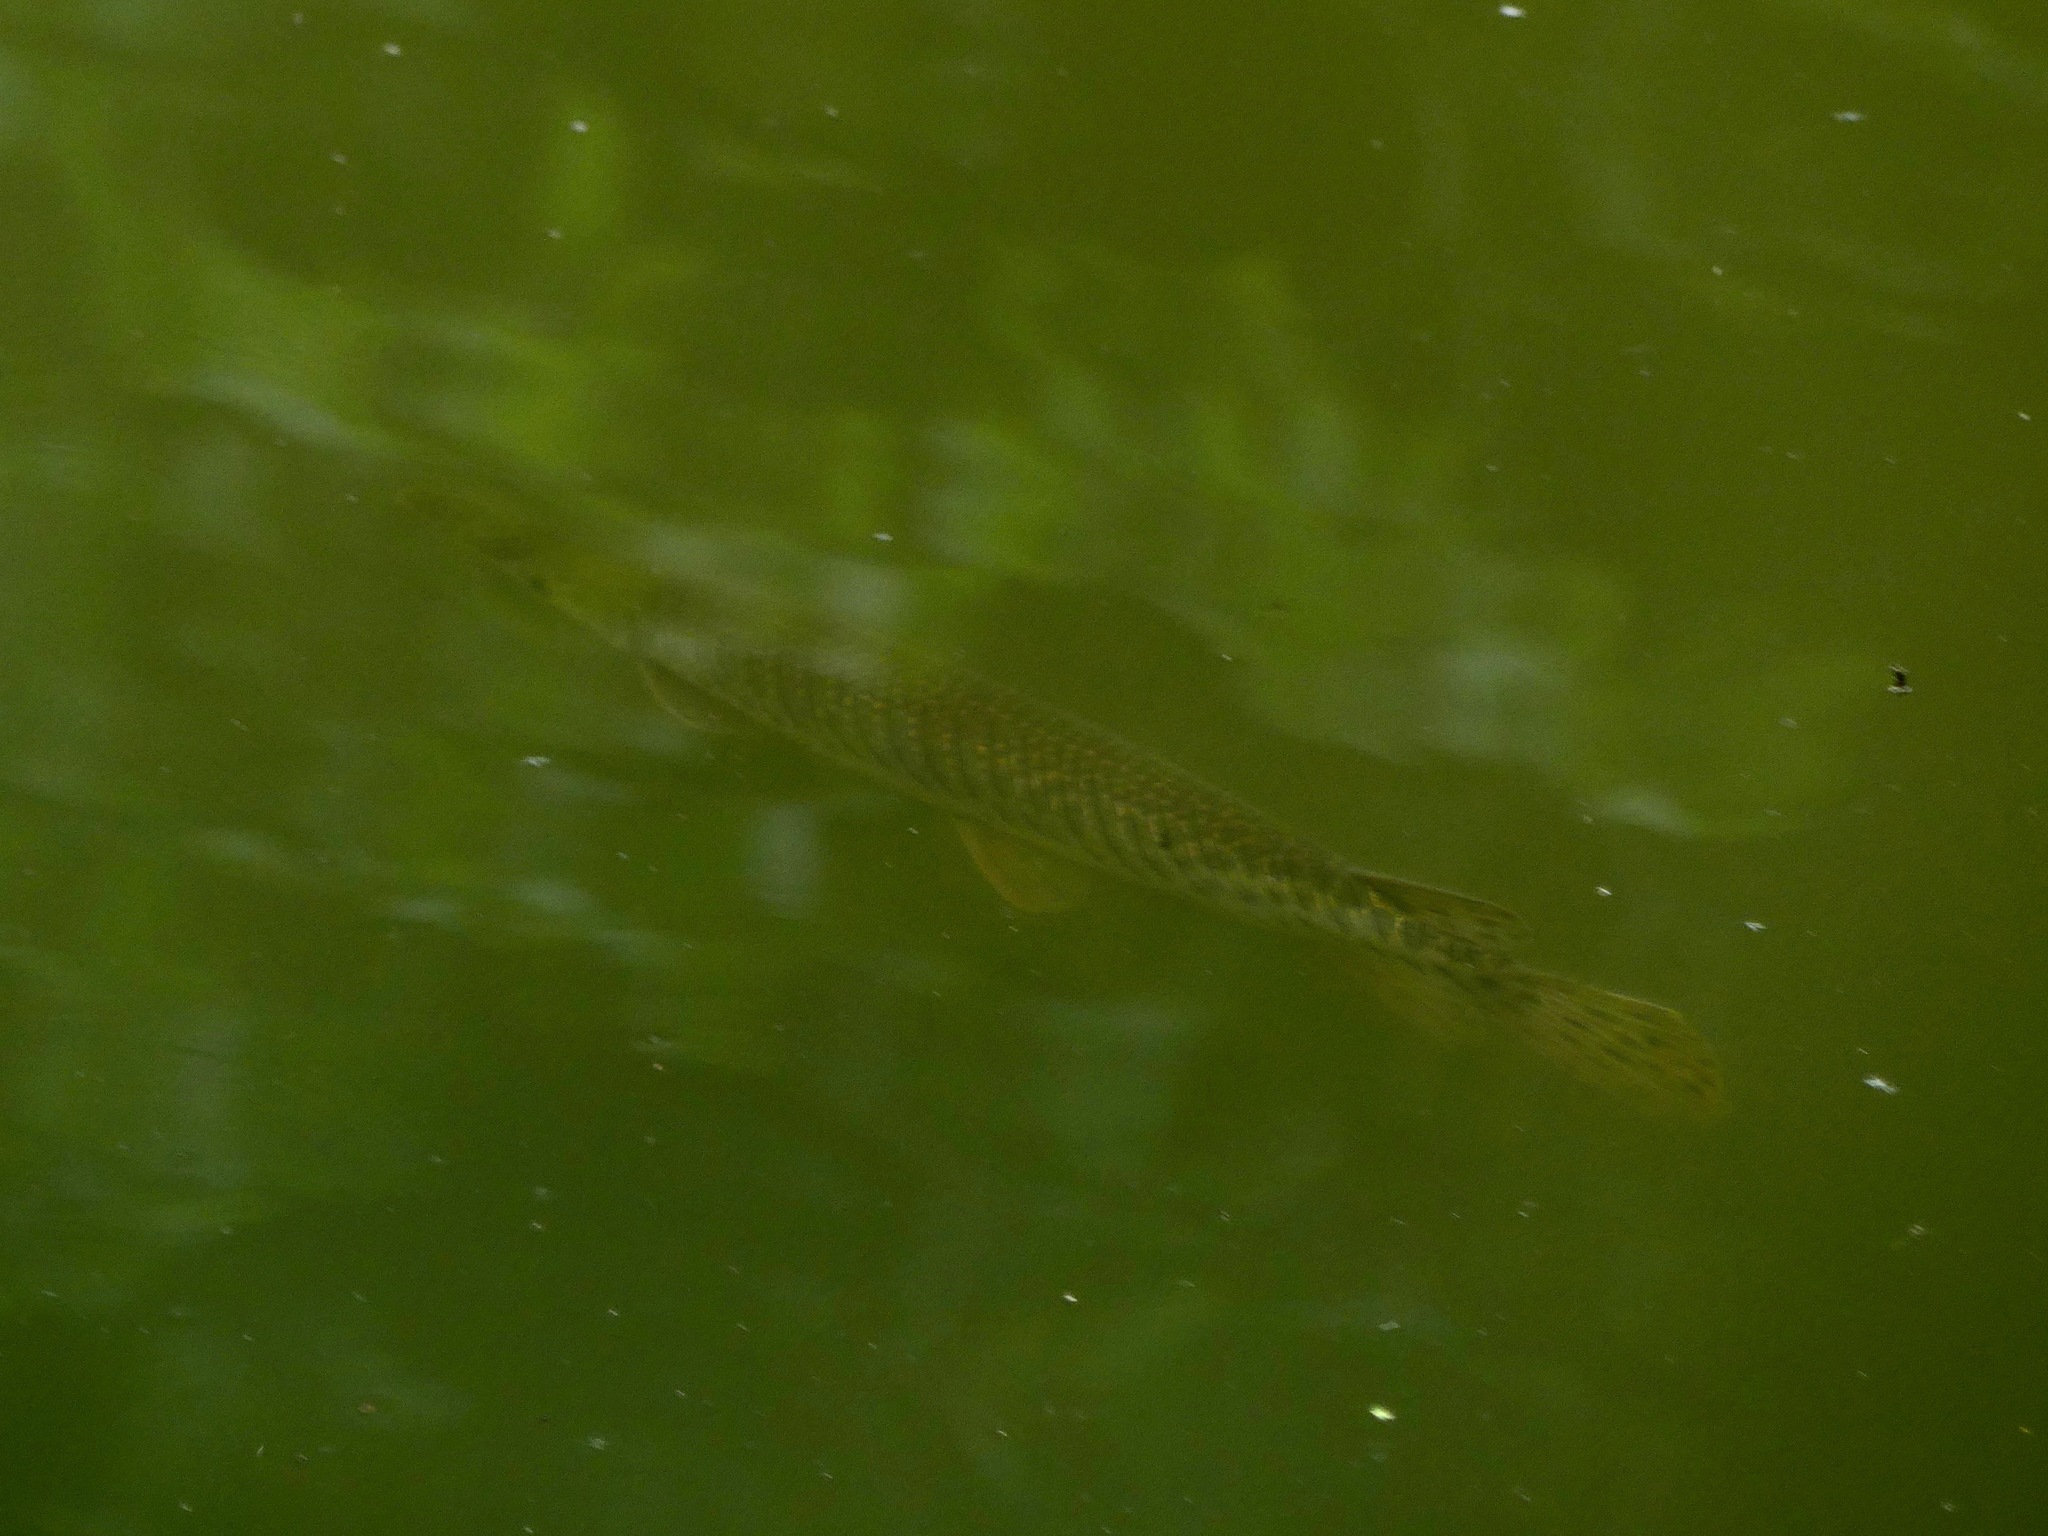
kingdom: Animalia
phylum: Chordata
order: Lepisosteiformes
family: Lepisosteidae
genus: Lepisosteus
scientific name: Lepisosteus oculatus
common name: Spotted gar
